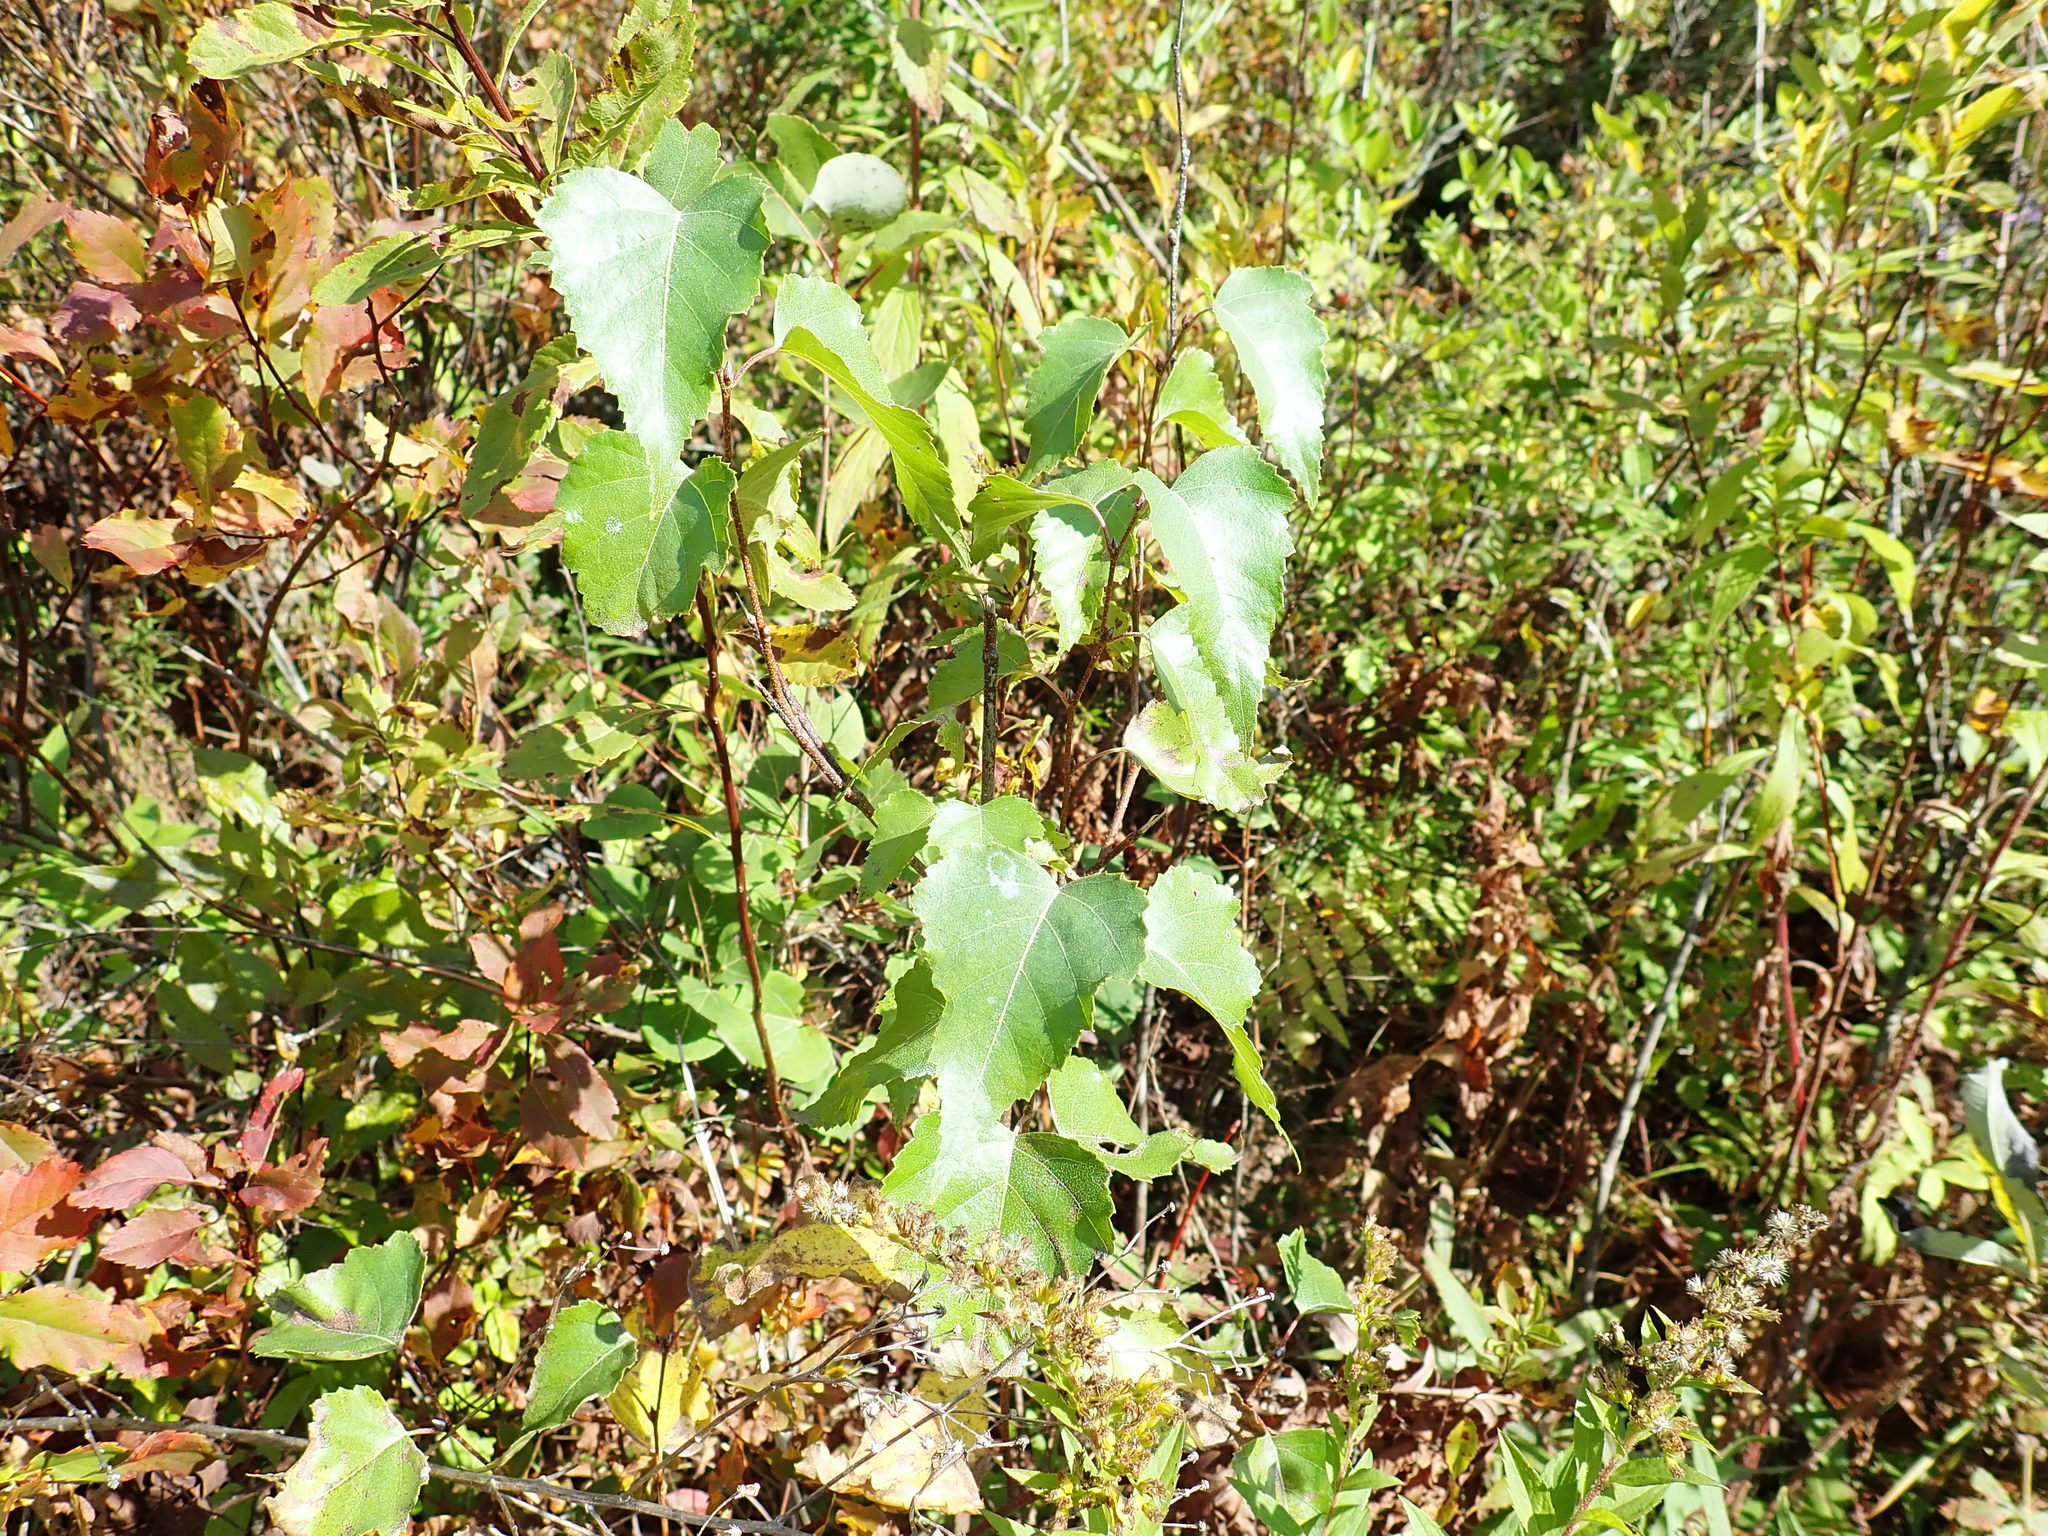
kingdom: Plantae
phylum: Tracheophyta
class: Magnoliopsida
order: Fagales
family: Betulaceae
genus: Betula
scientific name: Betula populifolia
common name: Fire birch
